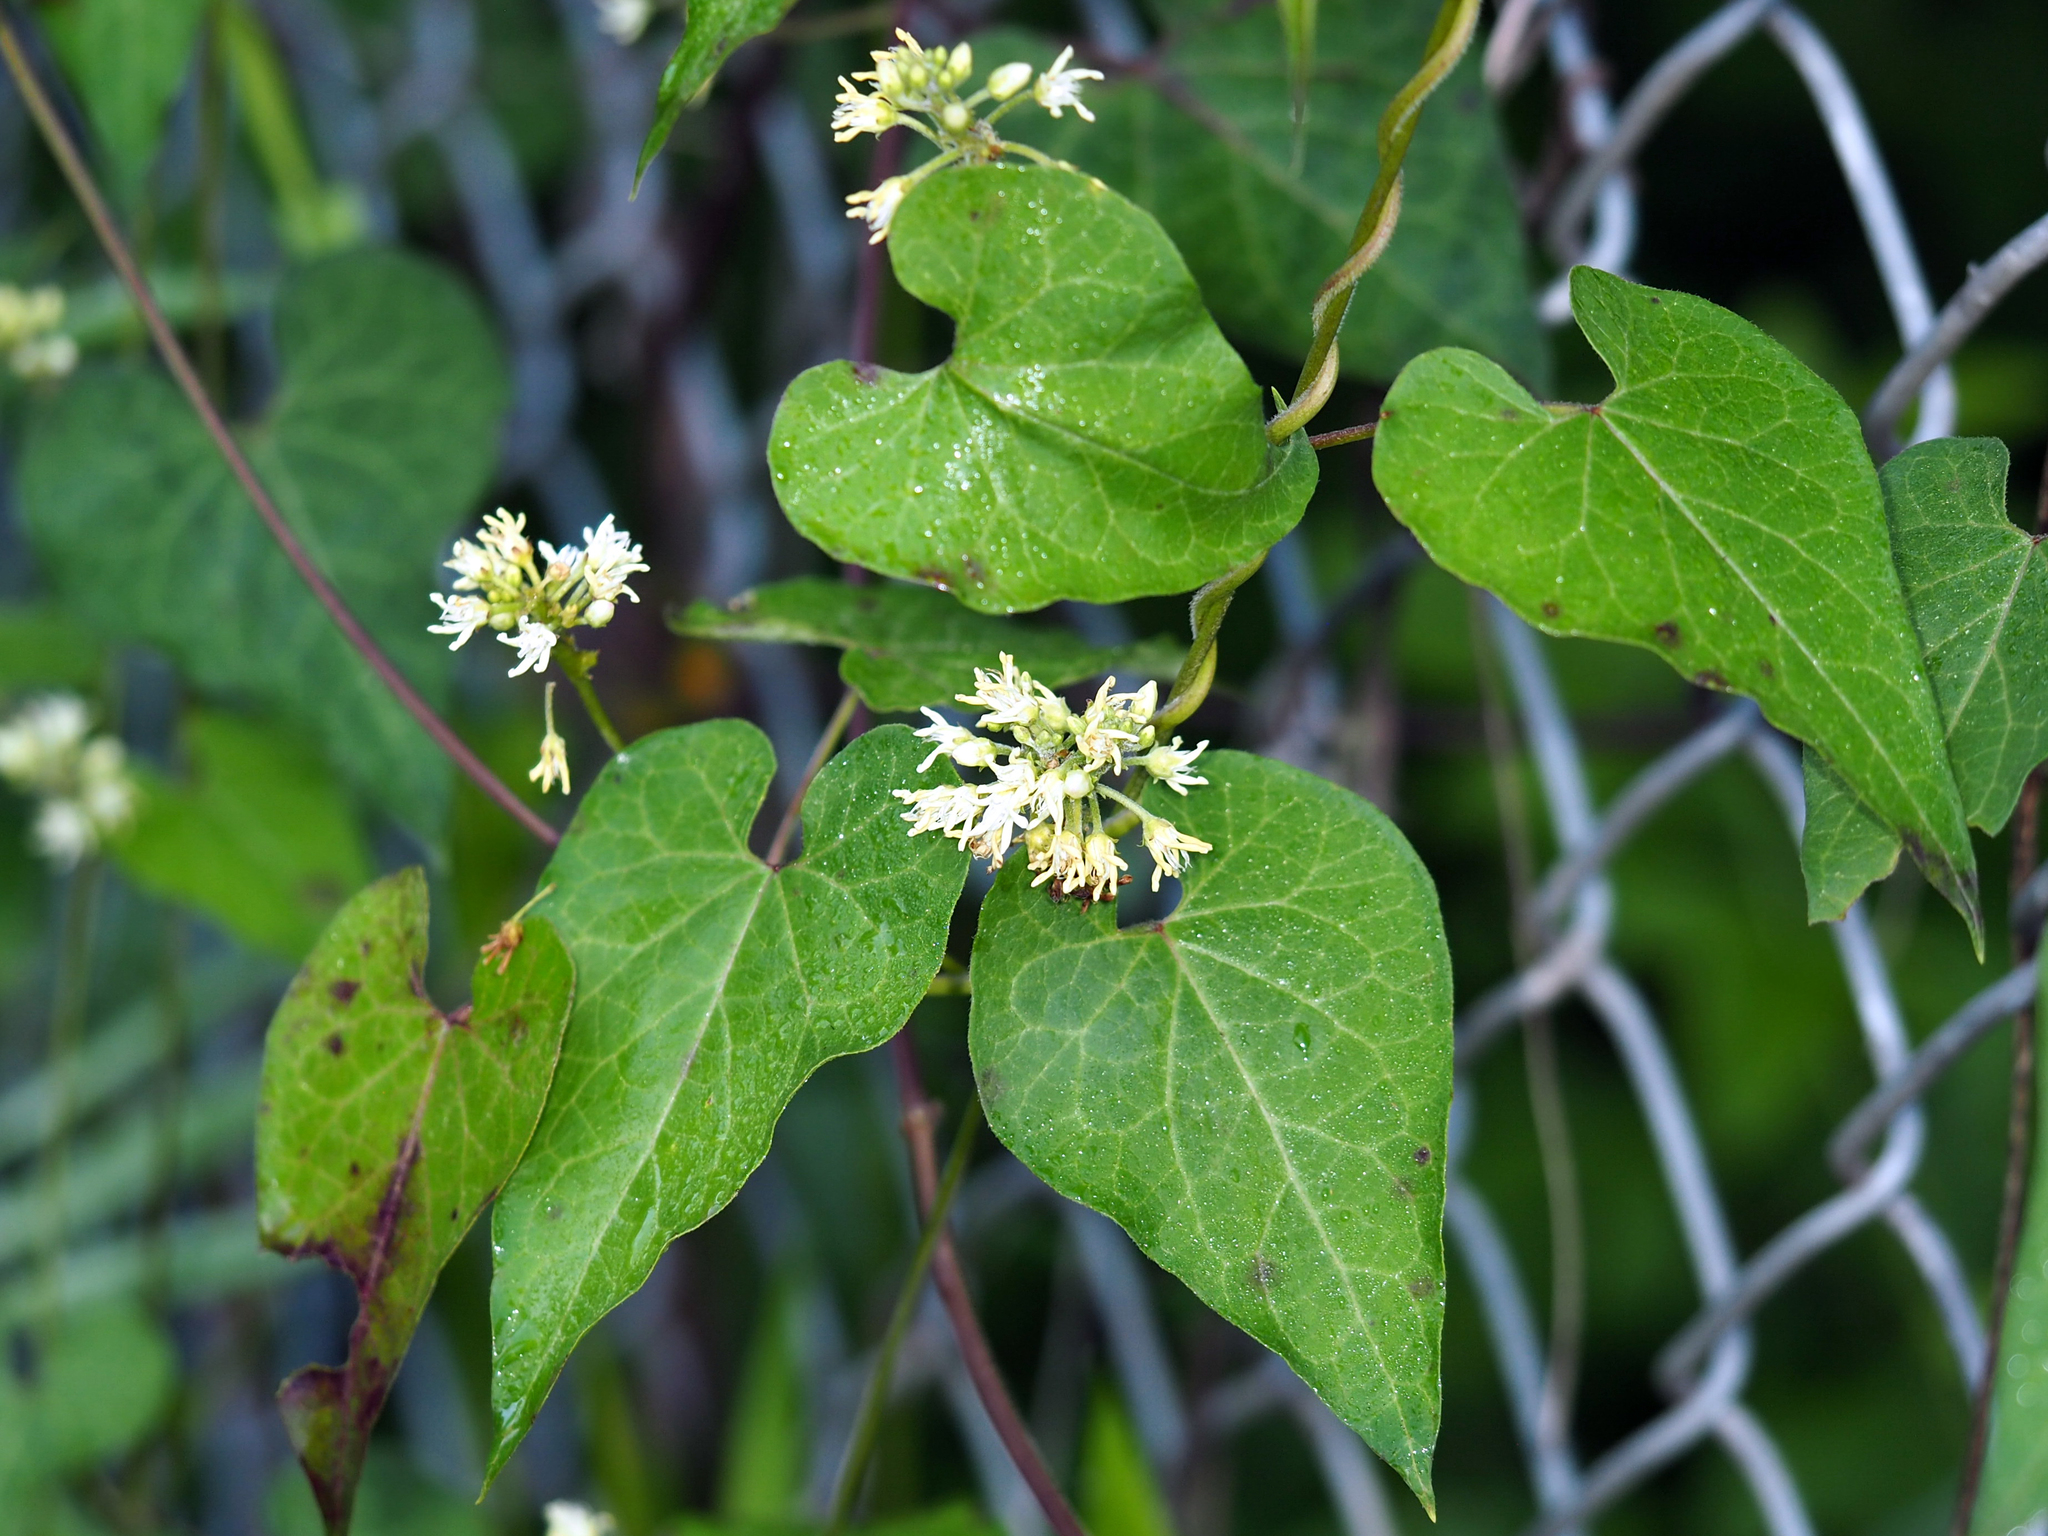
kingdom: Plantae
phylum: Tracheophyta
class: Magnoliopsida
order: Gentianales
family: Apocynaceae
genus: Cynanchum
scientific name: Cynanchum laeve
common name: Sandvine
